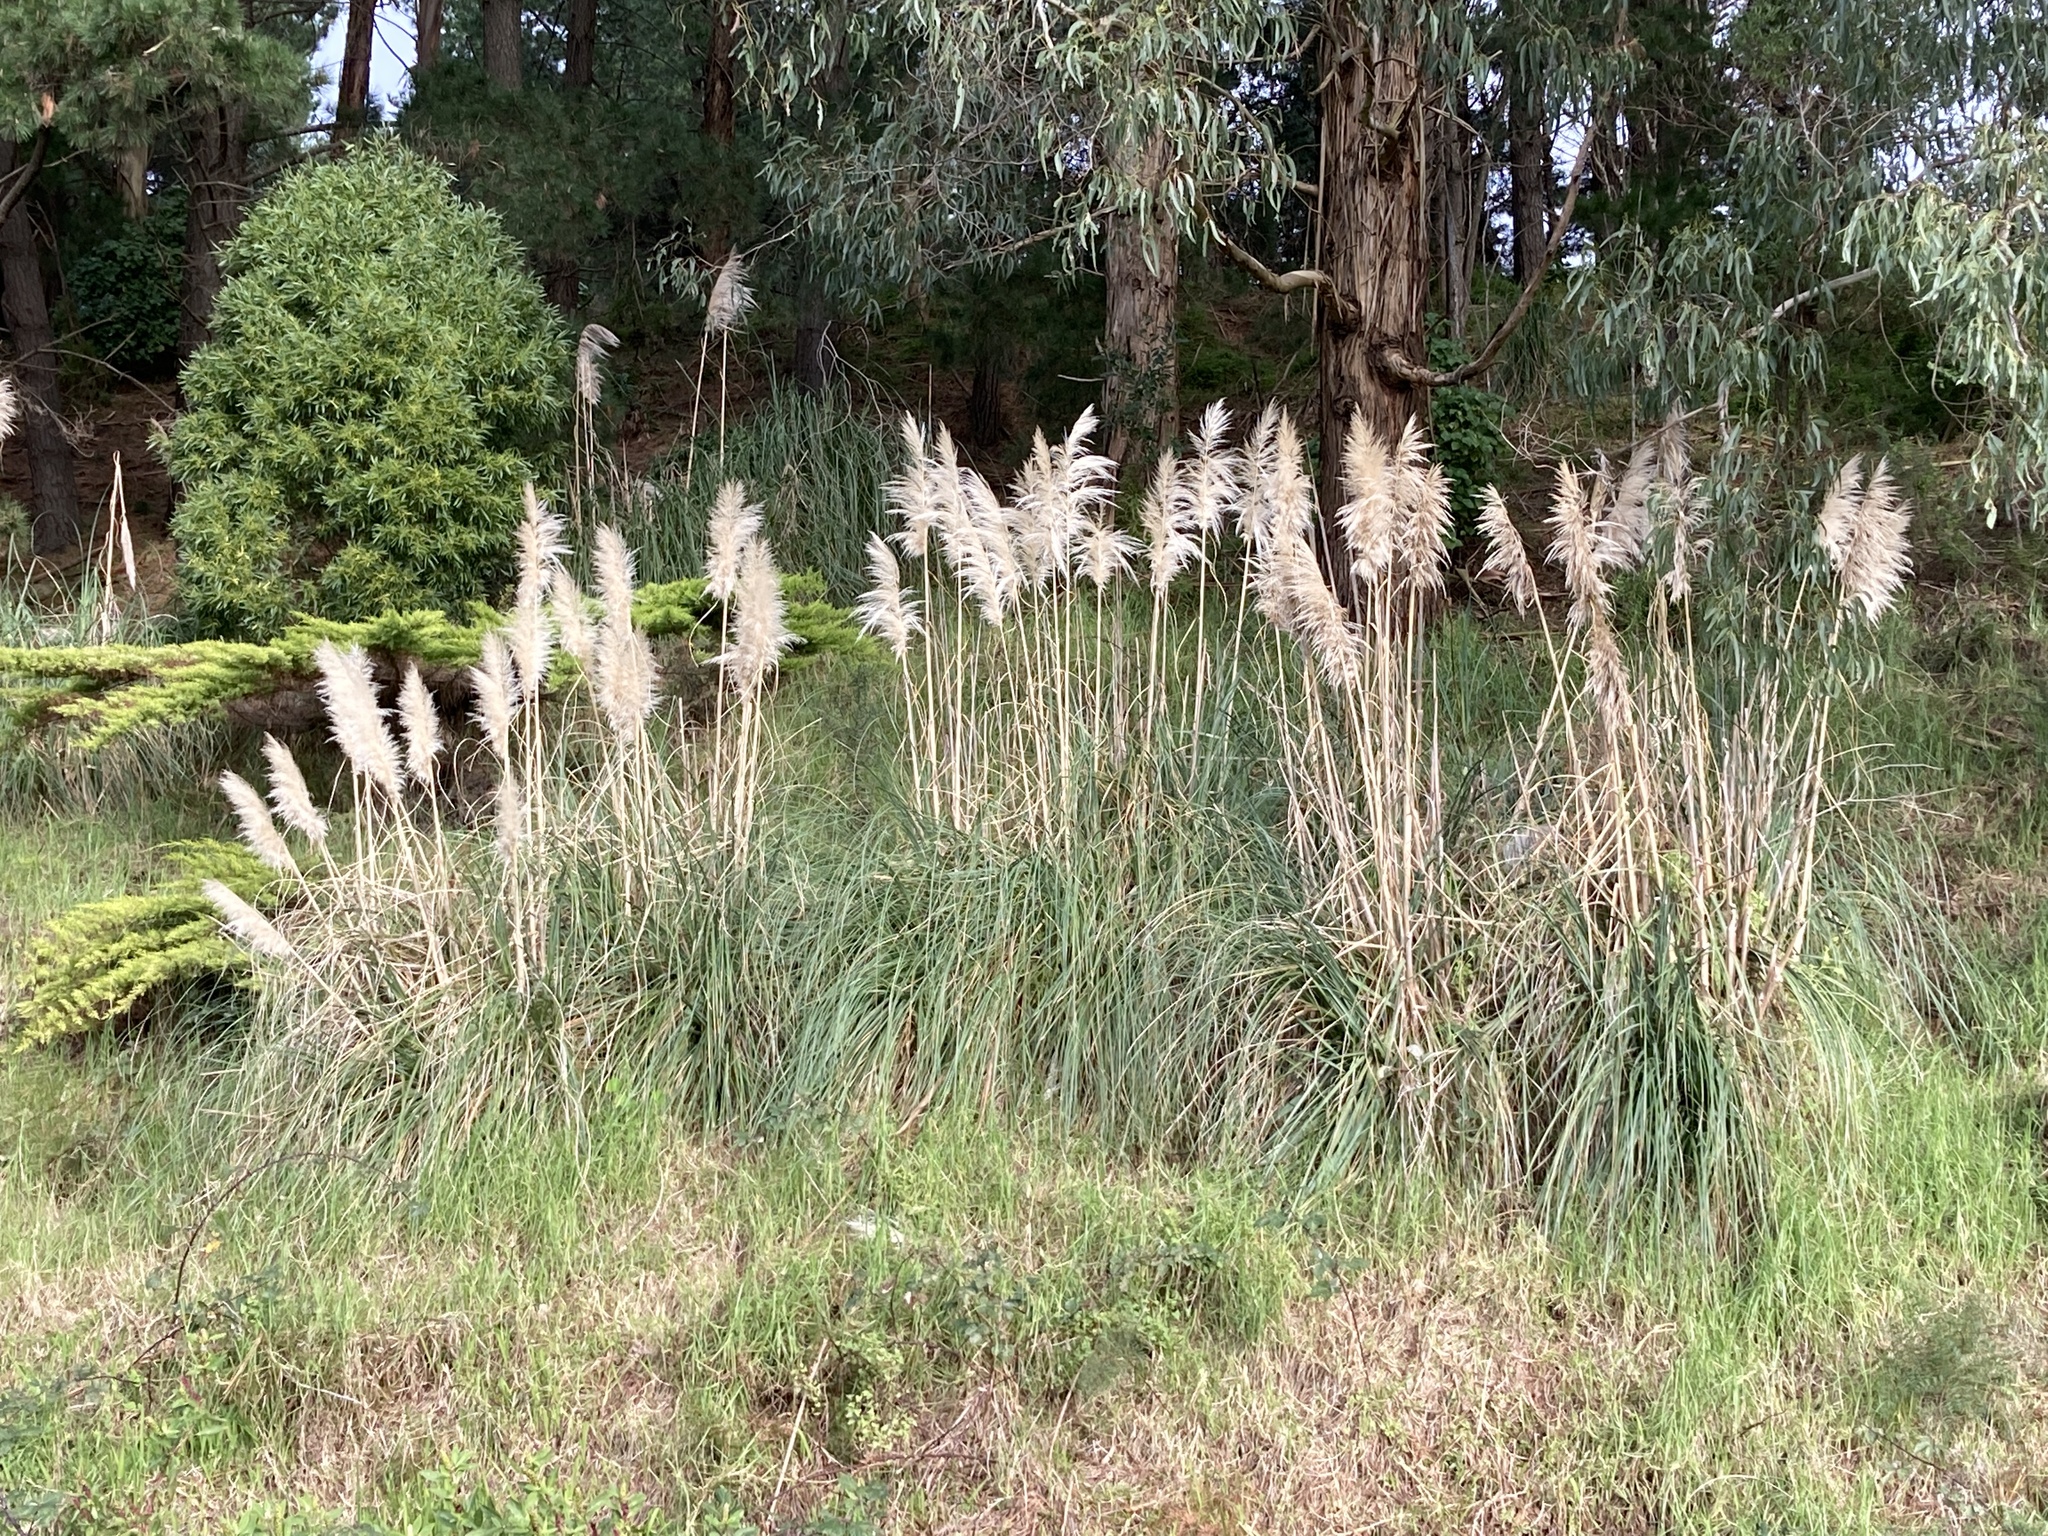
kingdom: Plantae
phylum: Tracheophyta
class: Liliopsida
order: Poales
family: Poaceae
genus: Cortaderia
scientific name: Cortaderia selloana
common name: Uruguayan pampas grass
